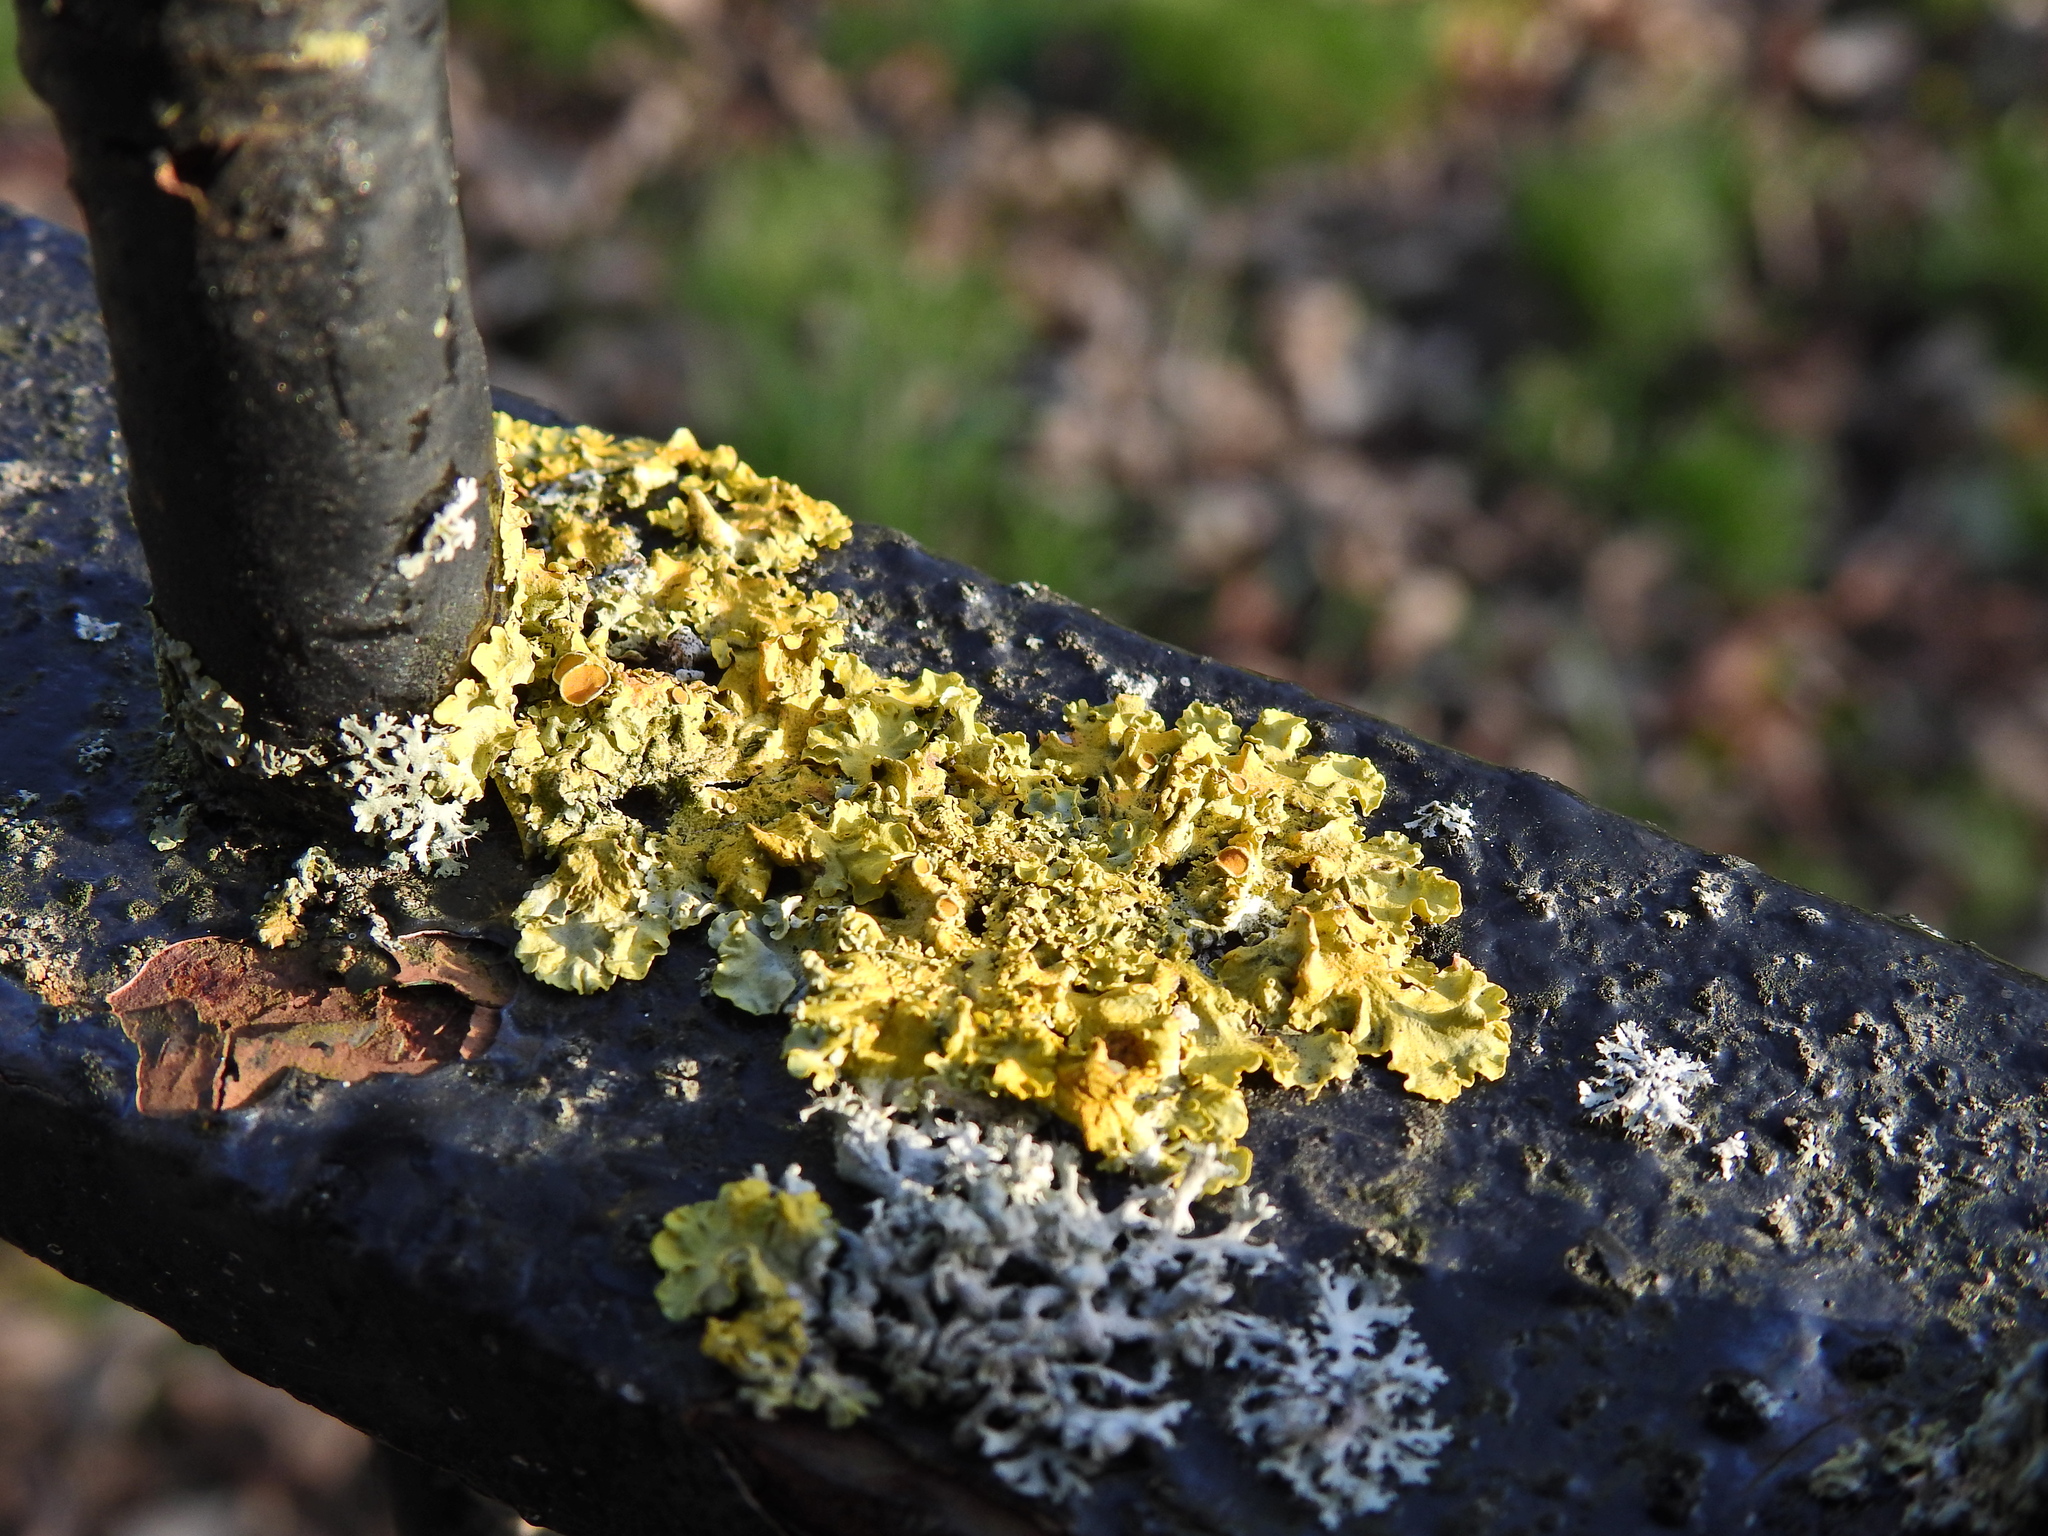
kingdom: Fungi
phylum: Ascomycota
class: Lecanoromycetes
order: Teloschistales
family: Teloschistaceae
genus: Xanthoria
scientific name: Xanthoria parietina
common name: Common orange lichen
